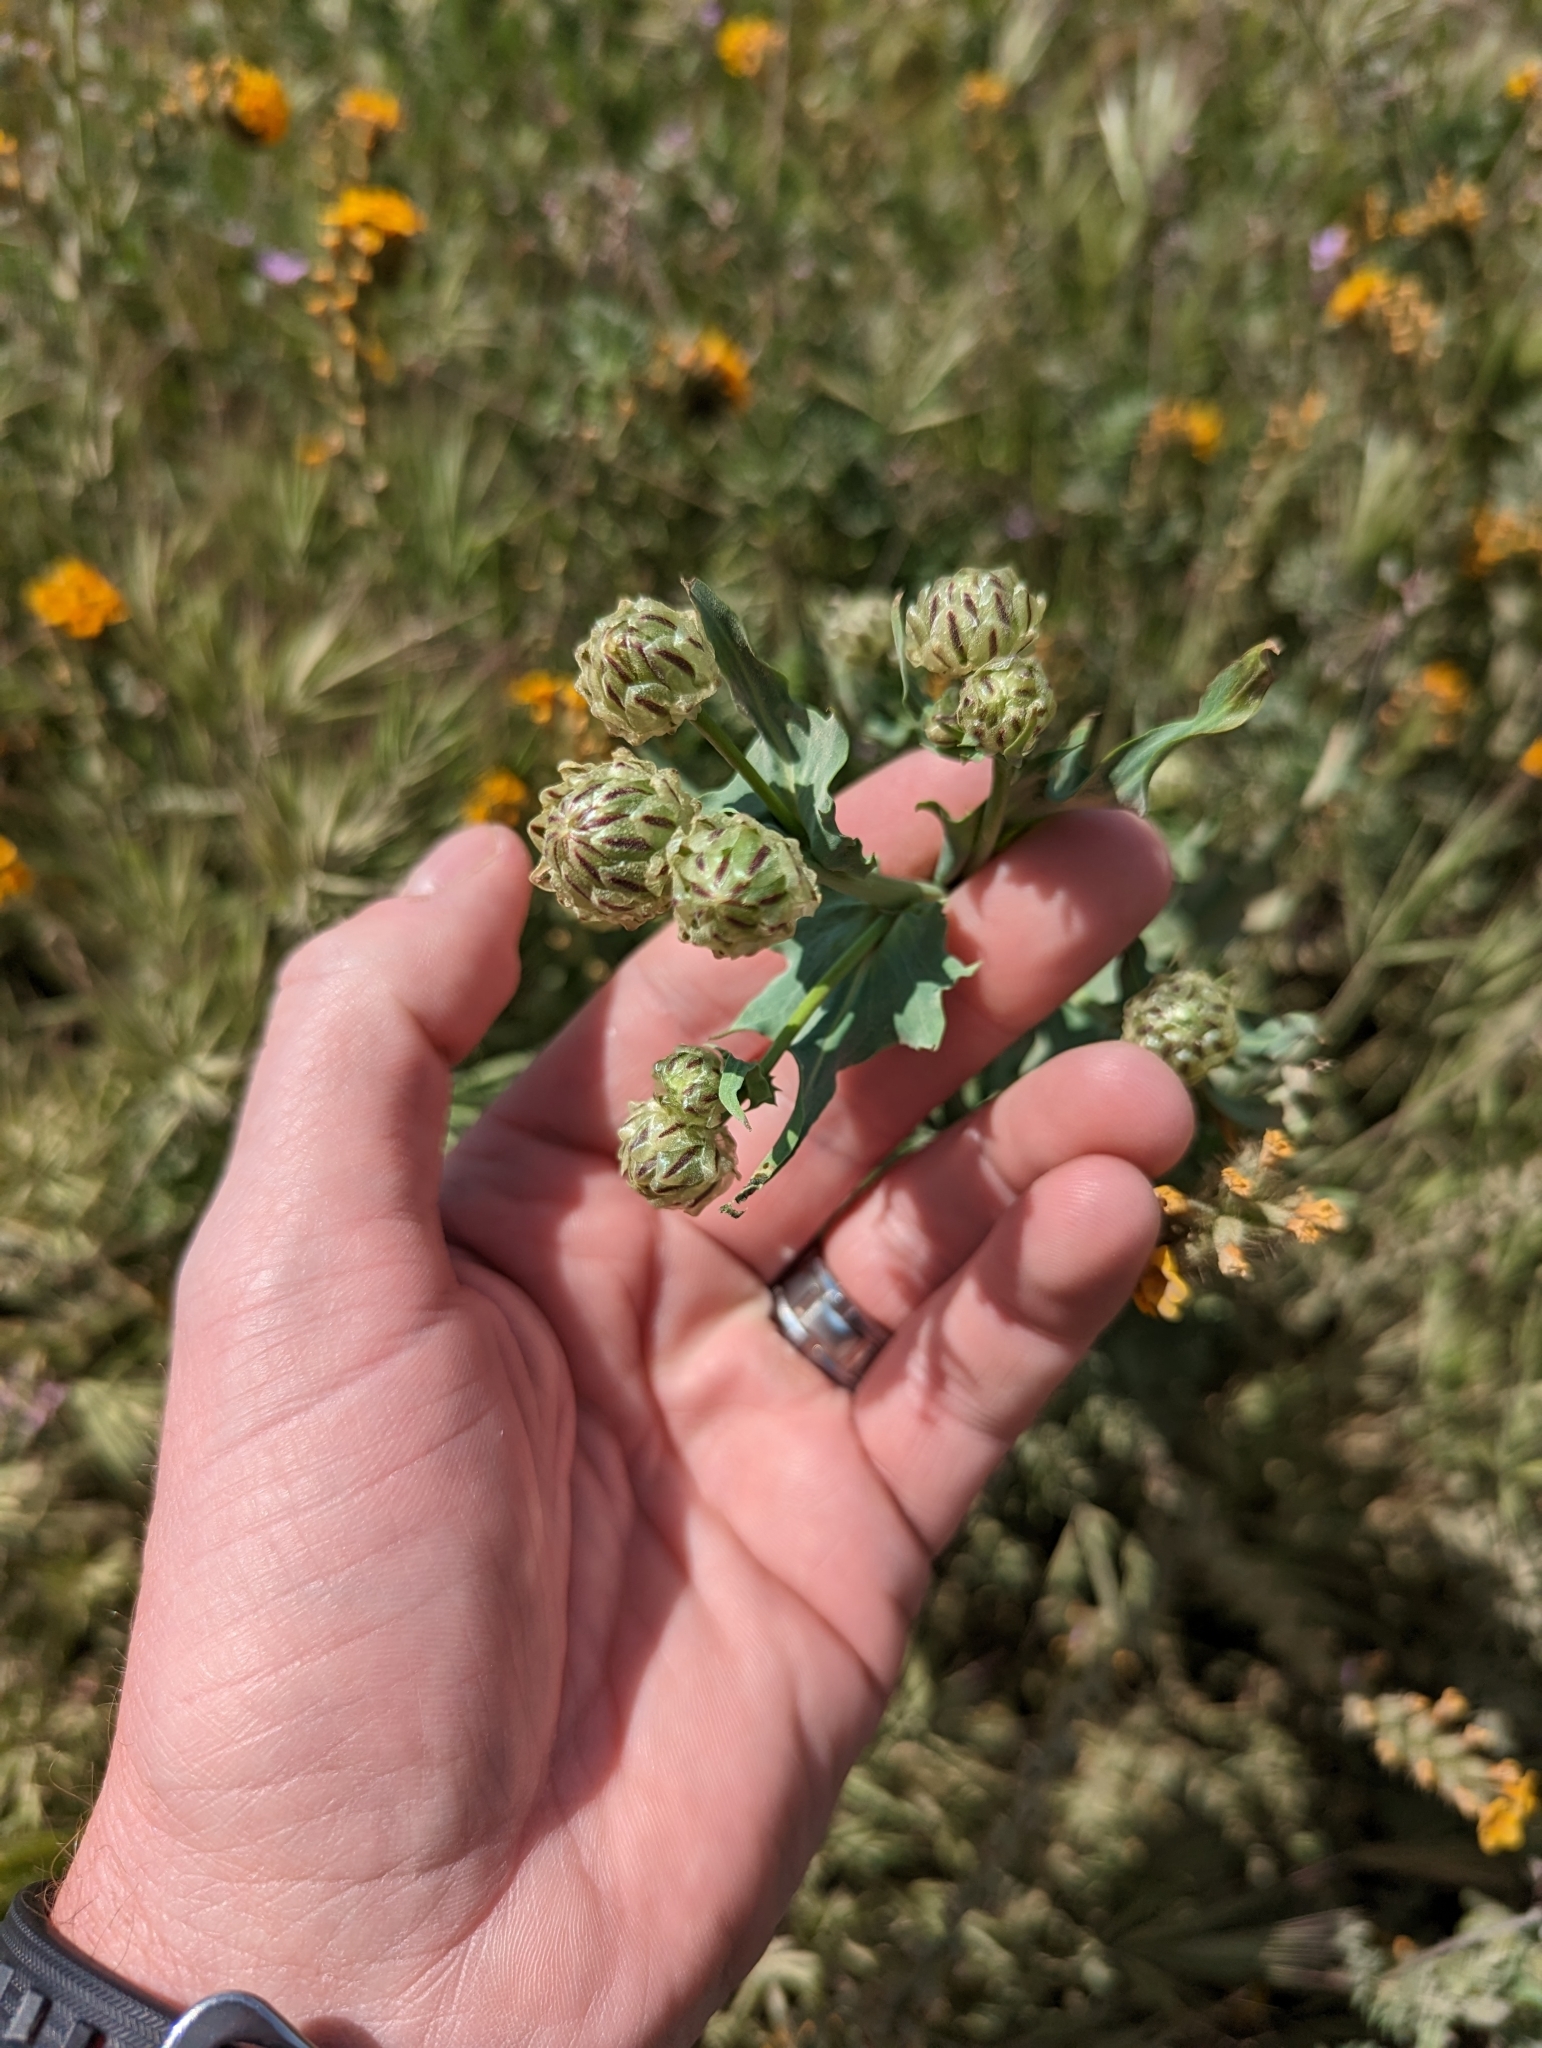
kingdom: Plantae
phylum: Tracheophyta
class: Magnoliopsida
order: Asterales
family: Asteraceae
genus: Malacothrix
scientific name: Malacothrix coulteri
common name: Snake's-head
